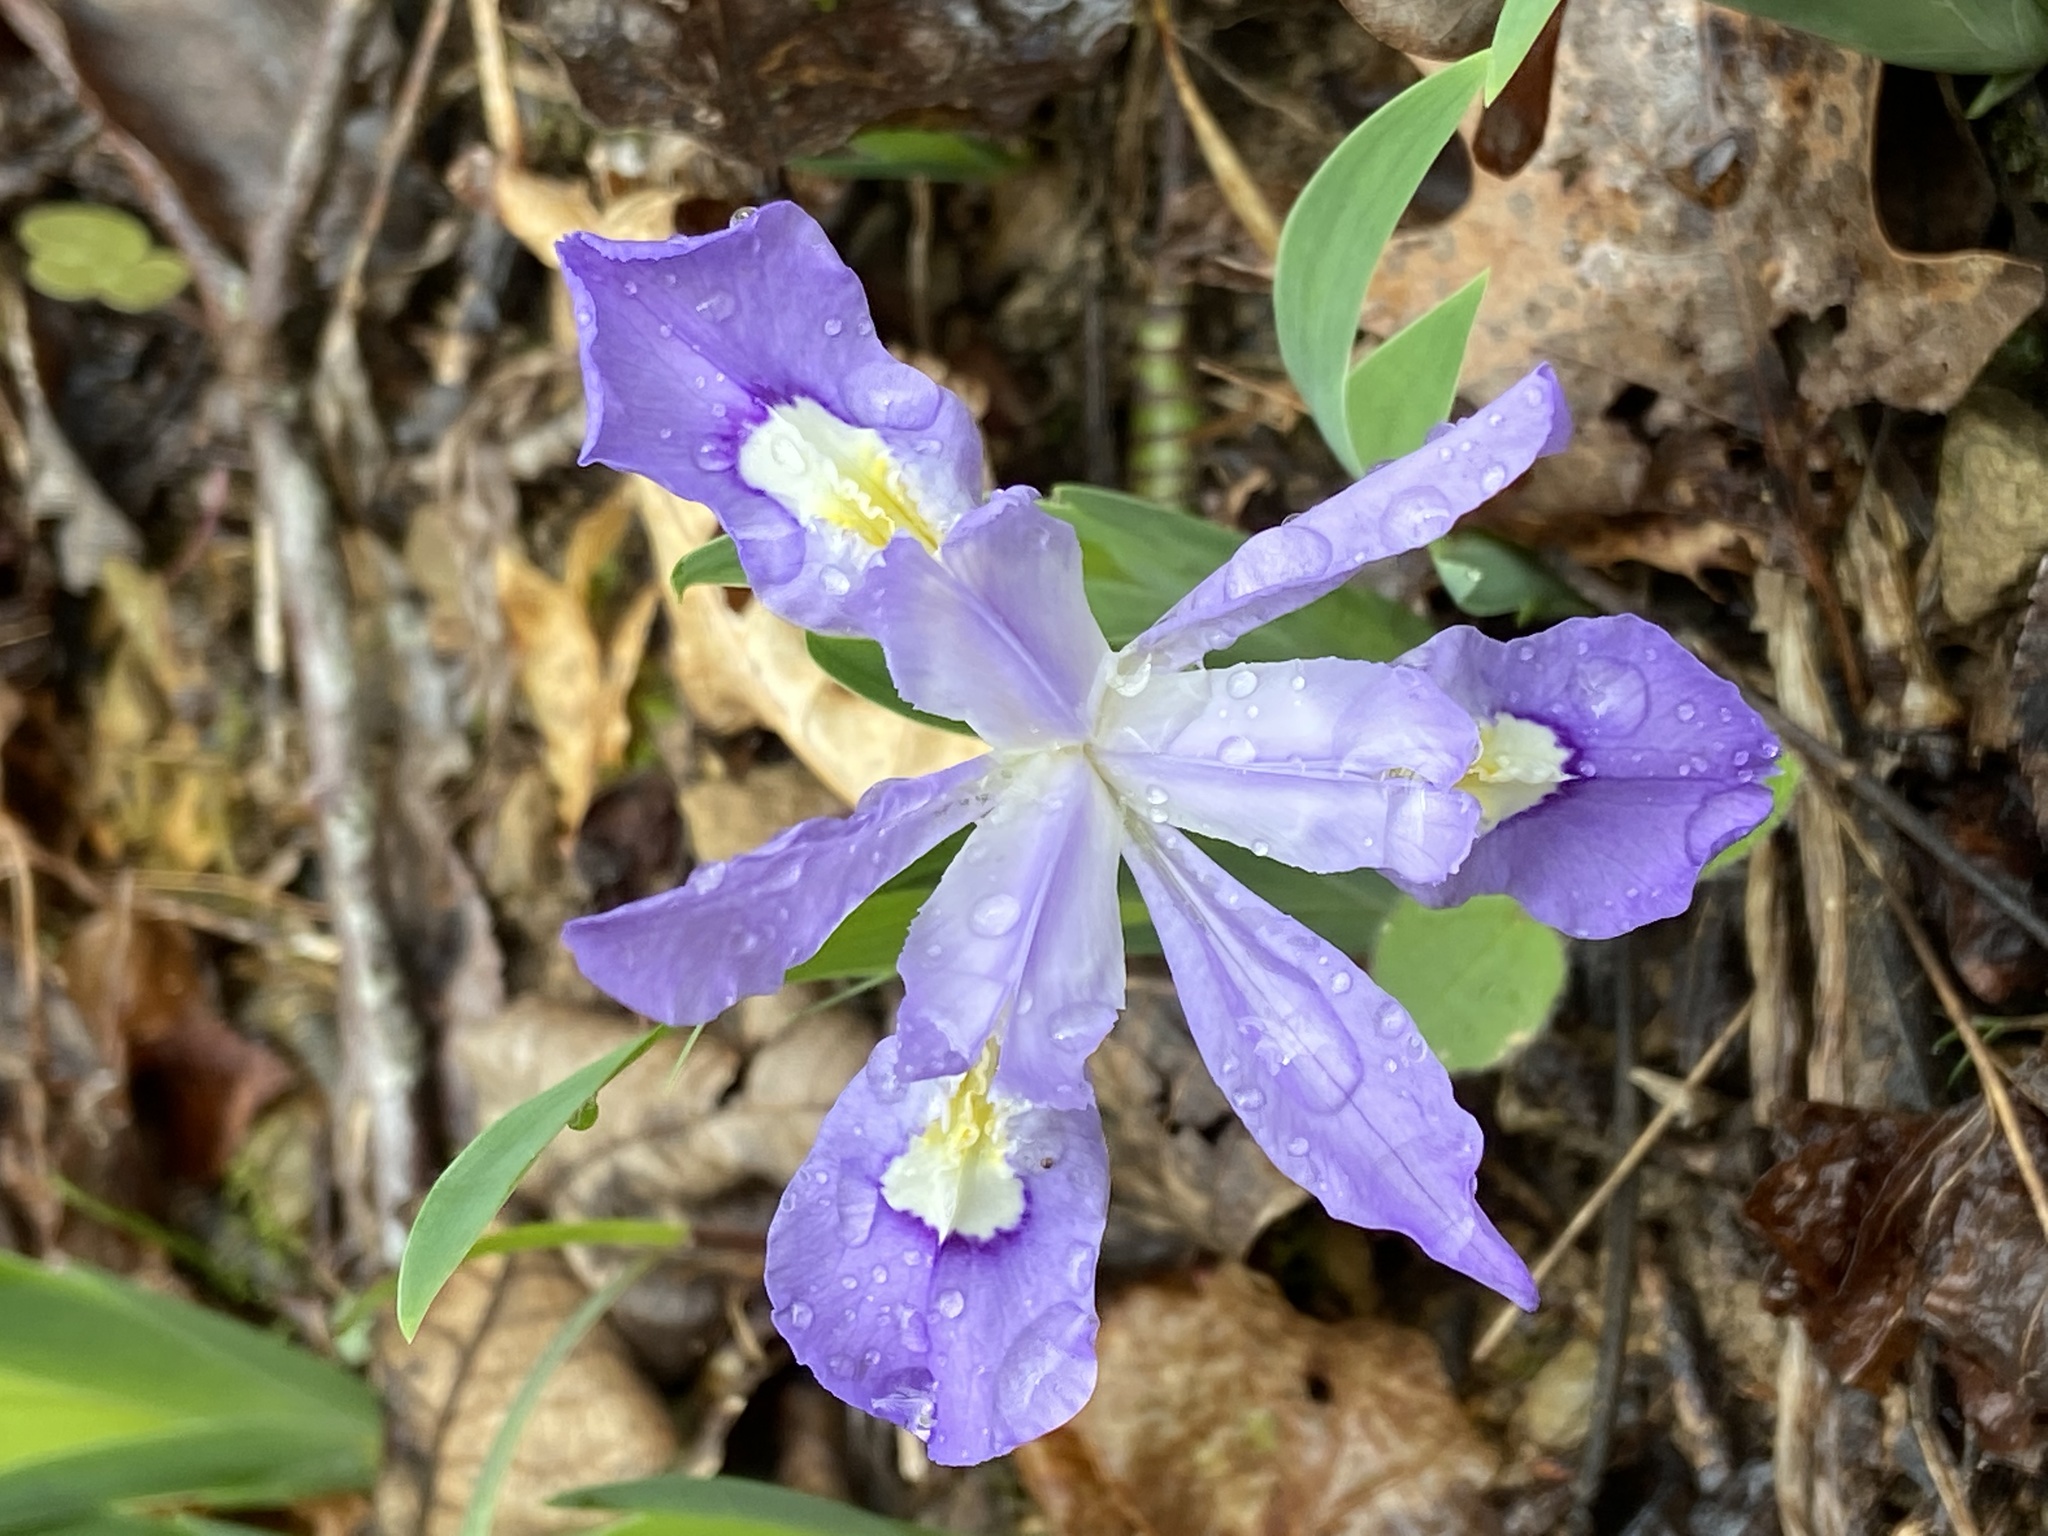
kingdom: Plantae
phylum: Tracheophyta
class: Liliopsida
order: Asparagales
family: Iridaceae
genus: Iris
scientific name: Iris cristata
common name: Crested iris
